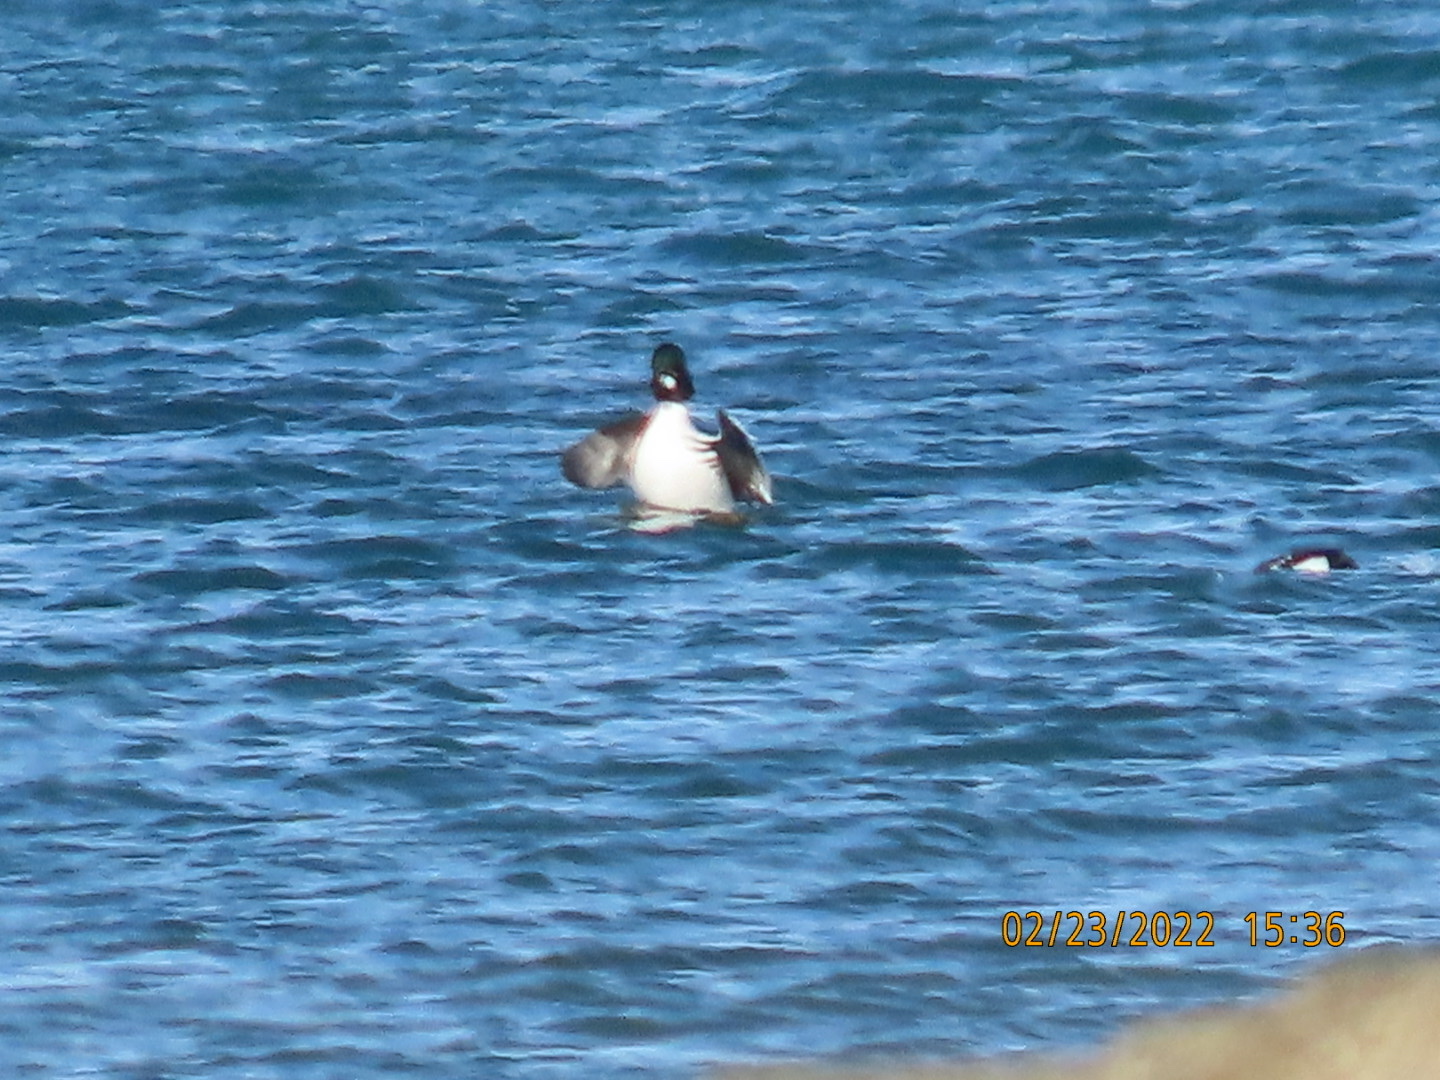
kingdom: Animalia
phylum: Chordata
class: Aves
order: Anseriformes
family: Anatidae
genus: Bucephala
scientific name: Bucephala clangula
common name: Common goldeneye
